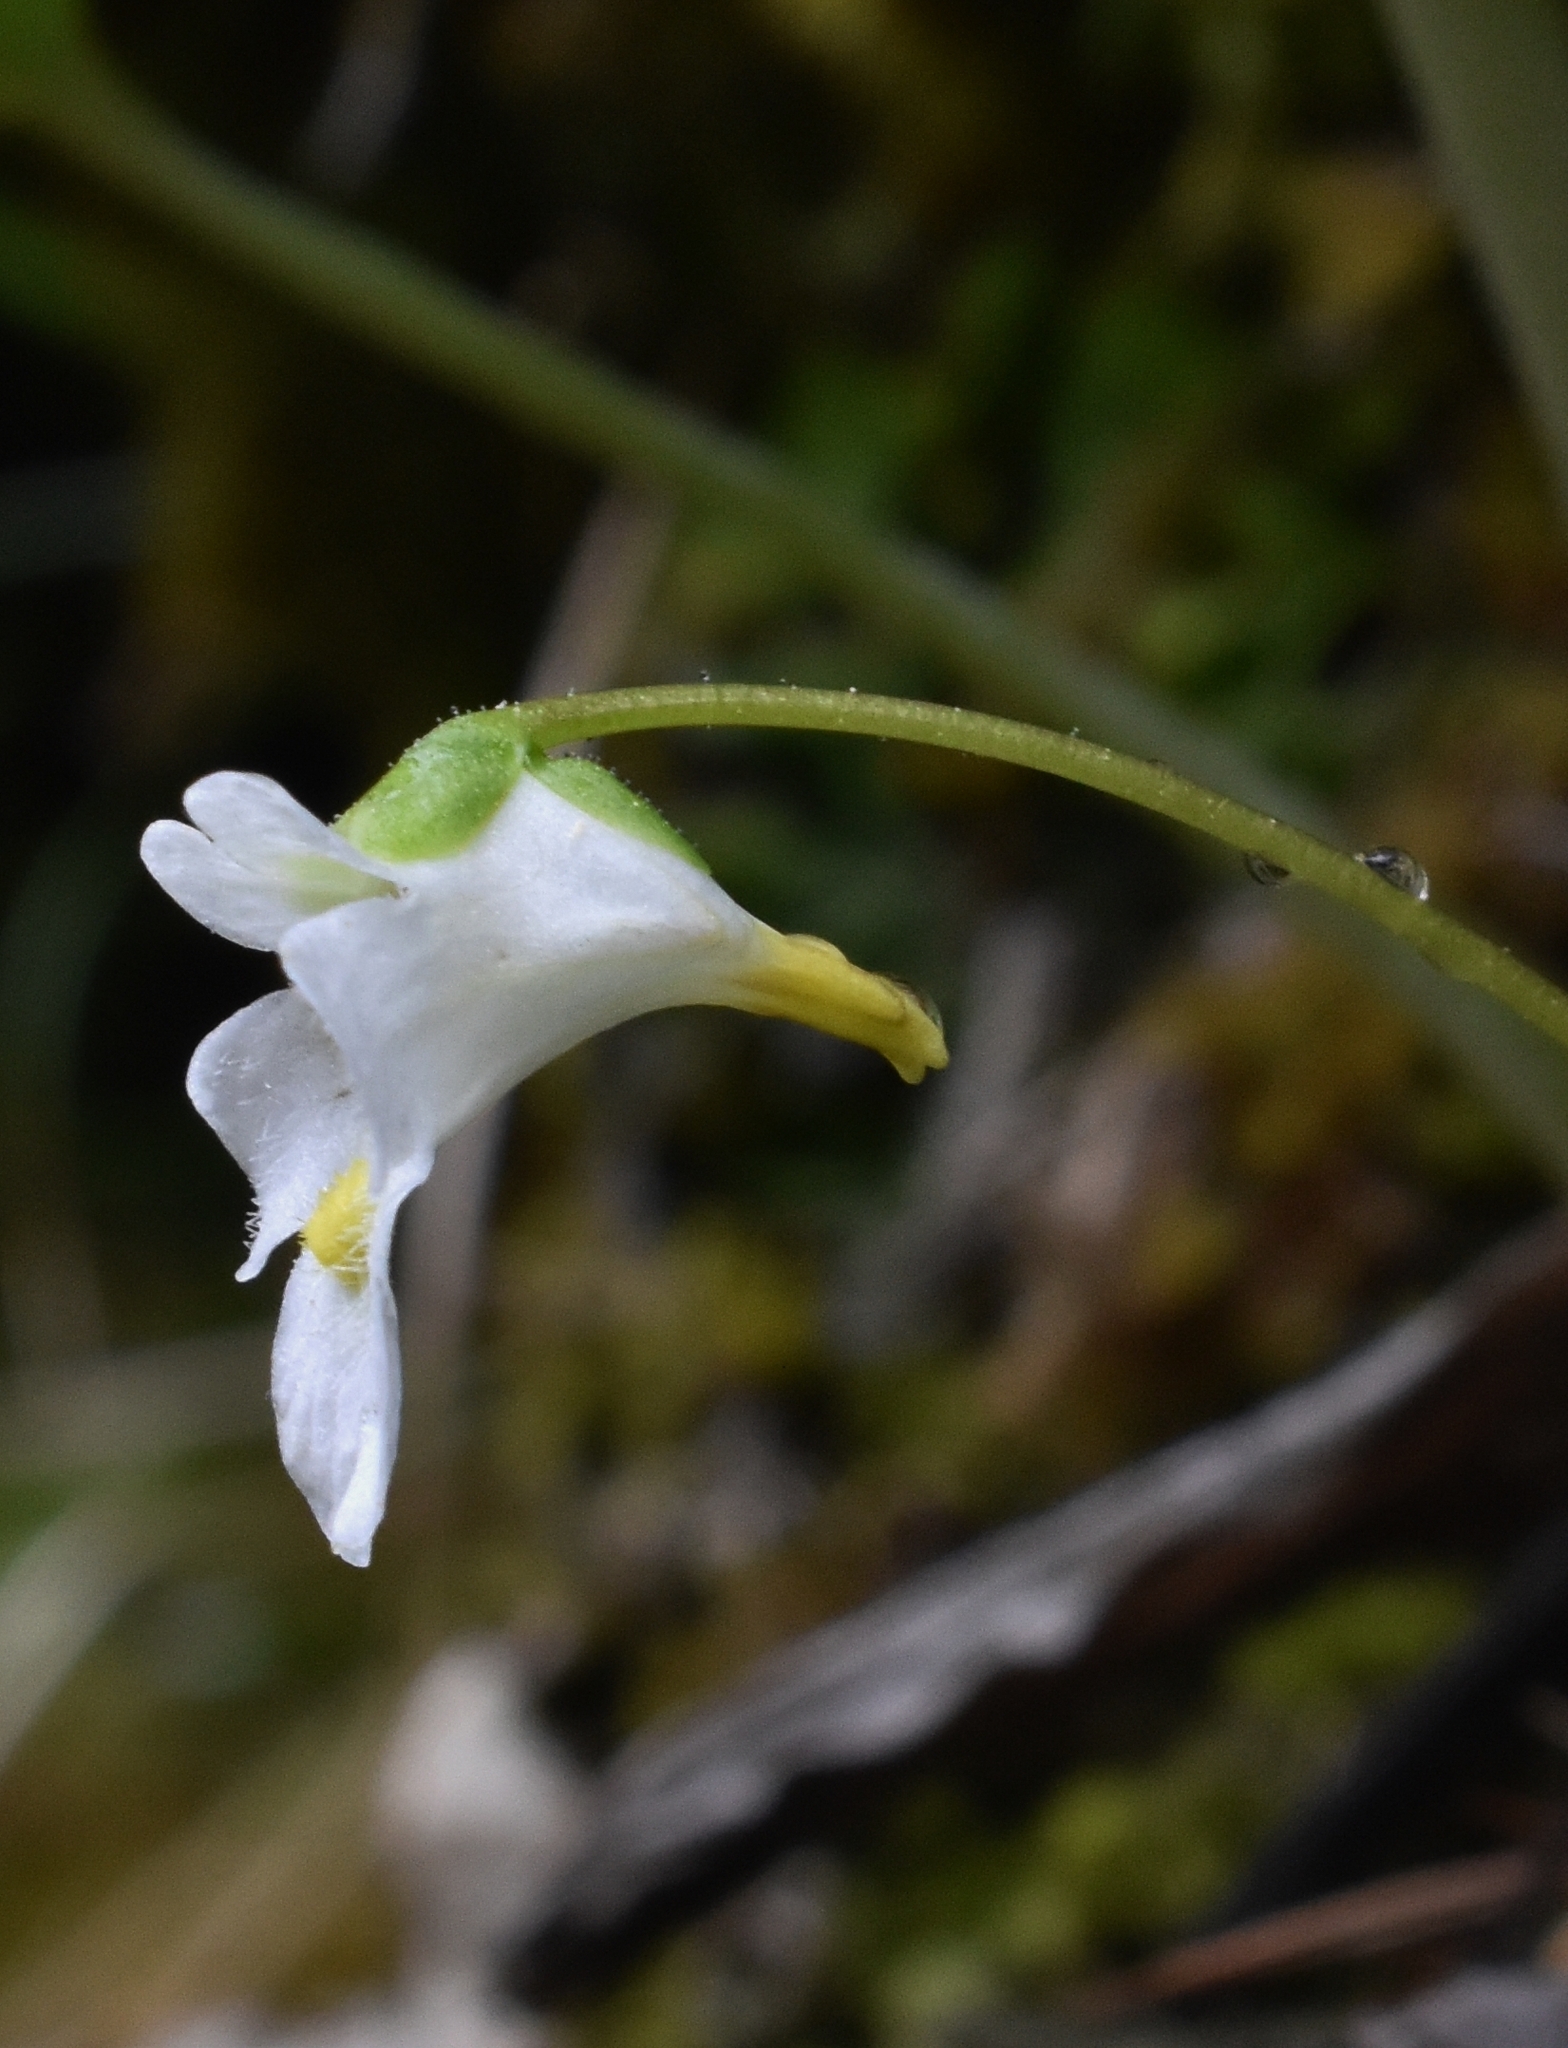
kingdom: Plantae
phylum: Tracheophyta
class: Magnoliopsida
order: Lamiales
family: Lentibulariaceae
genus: Pinguicula
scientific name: Pinguicula alpina
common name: Alpine butterwort
